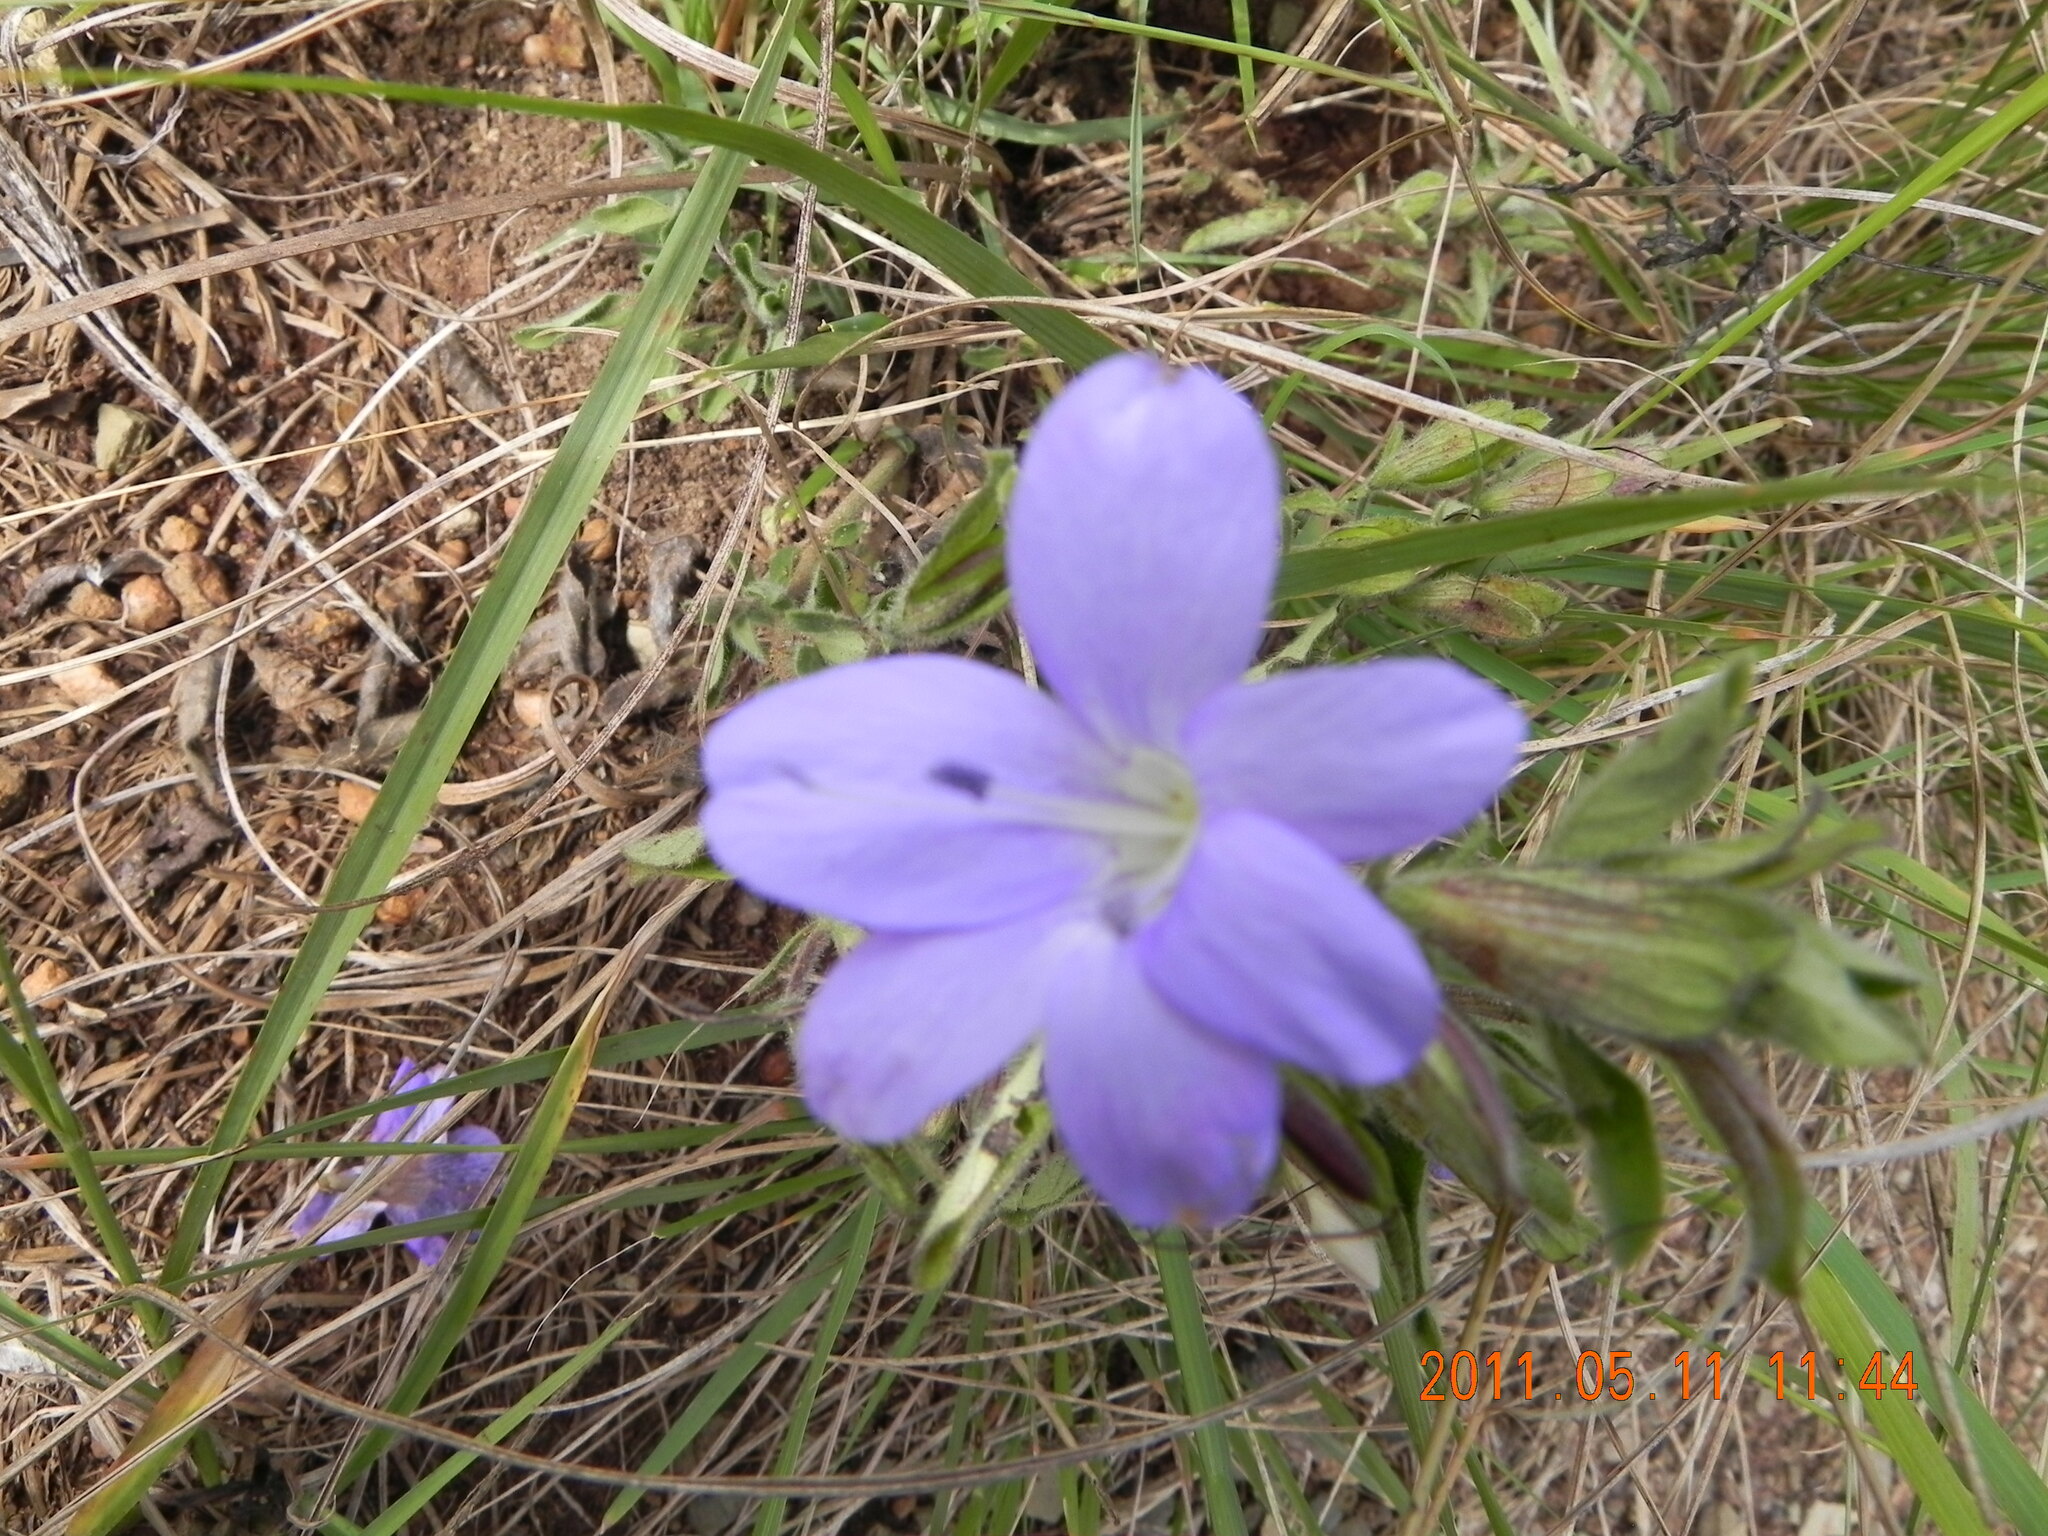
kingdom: Plantae
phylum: Tracheophyta
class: Magnoliopsida
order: Lamiales
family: Acanthaceae
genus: Barleria
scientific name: Barleria obtusa
